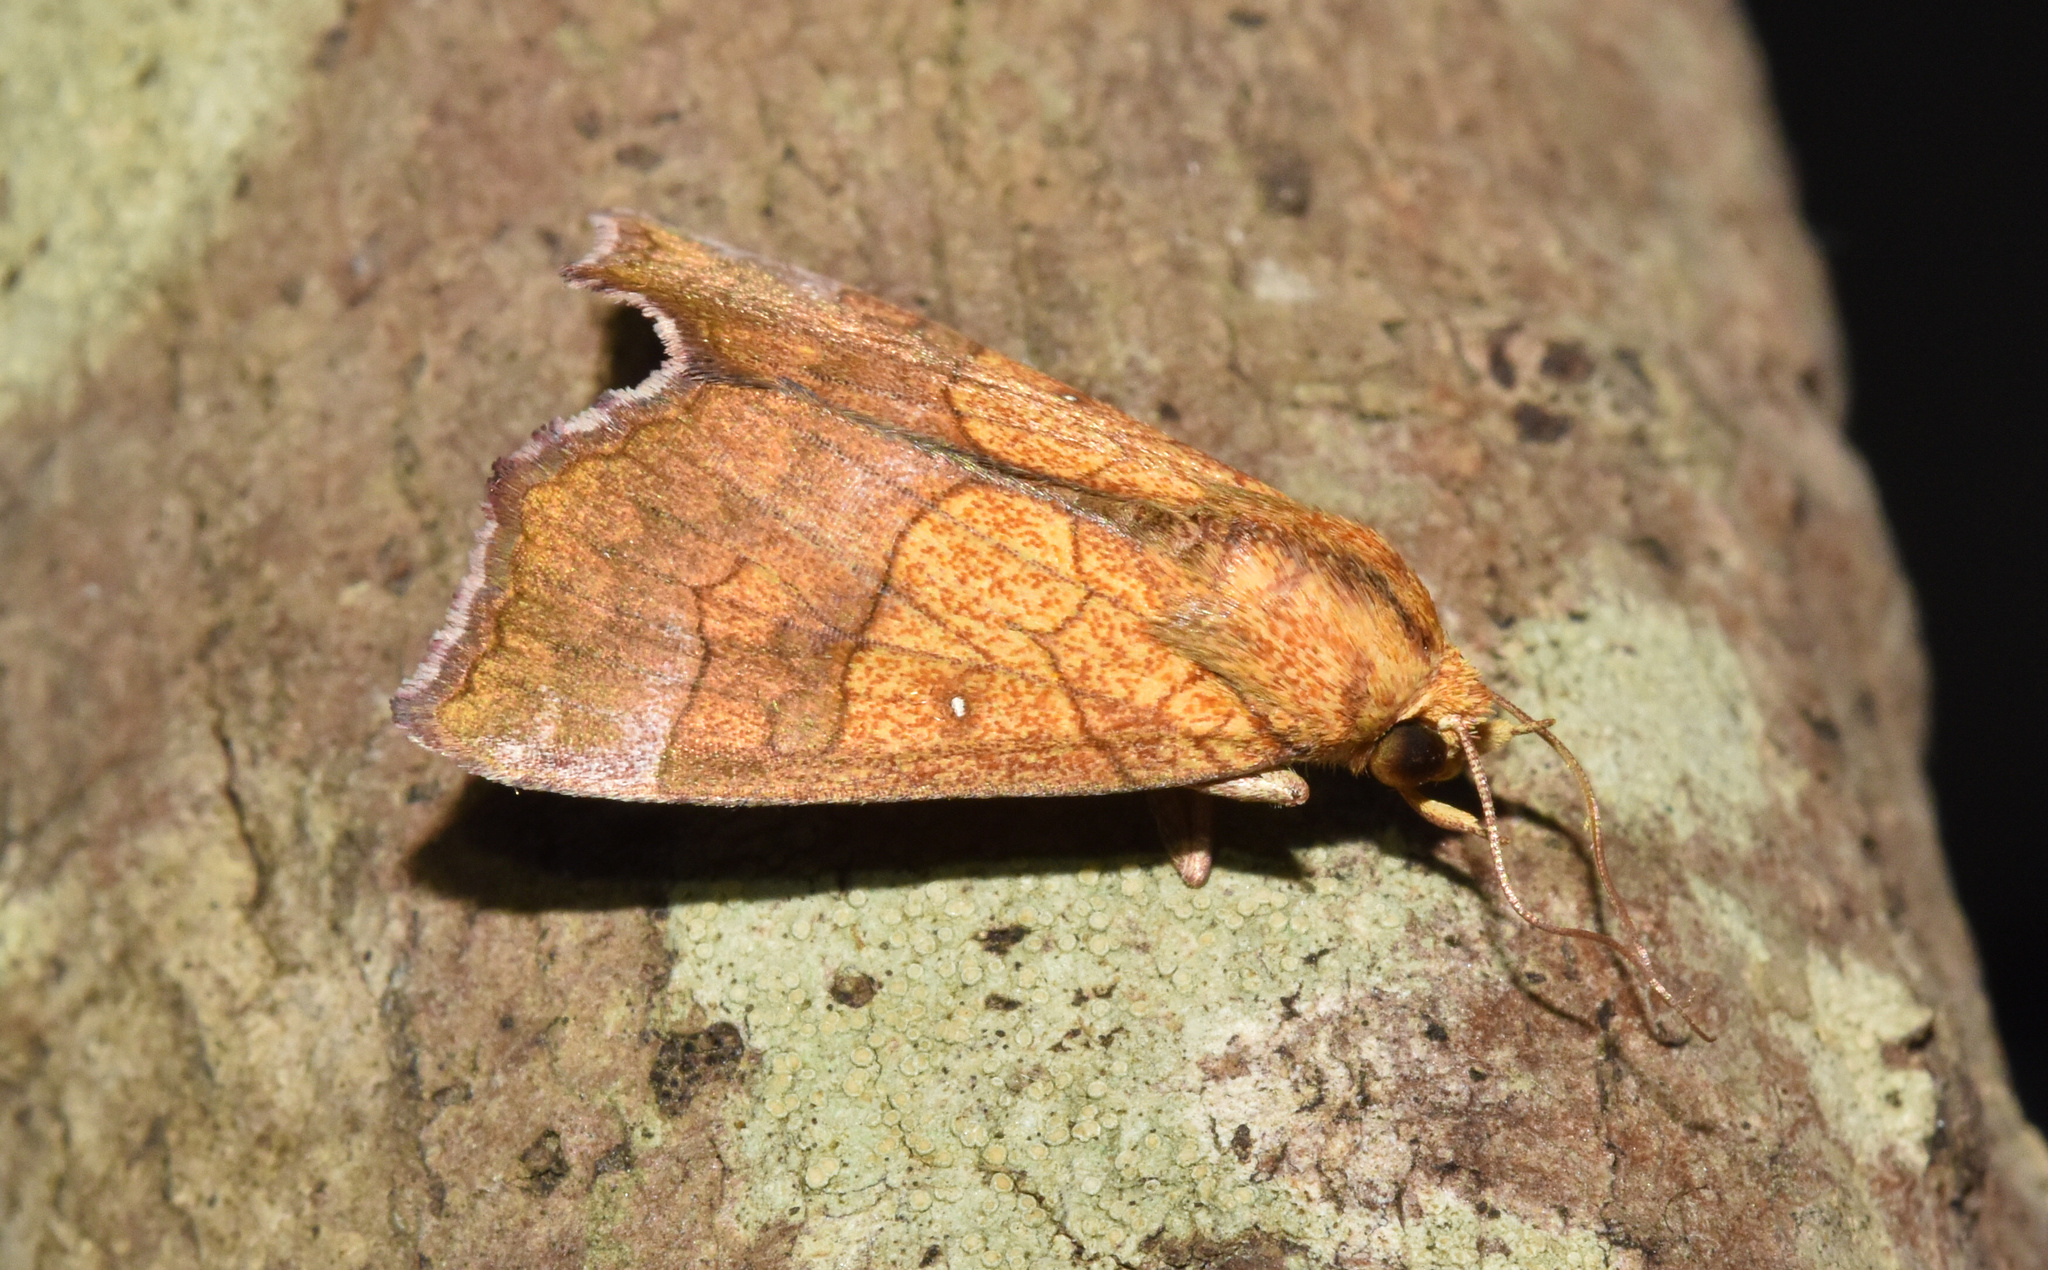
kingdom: Animalia
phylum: Arthropoda
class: Insecta
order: Lepidoptera
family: Erebidae
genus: Anomis
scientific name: Anomis flava
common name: Moth
